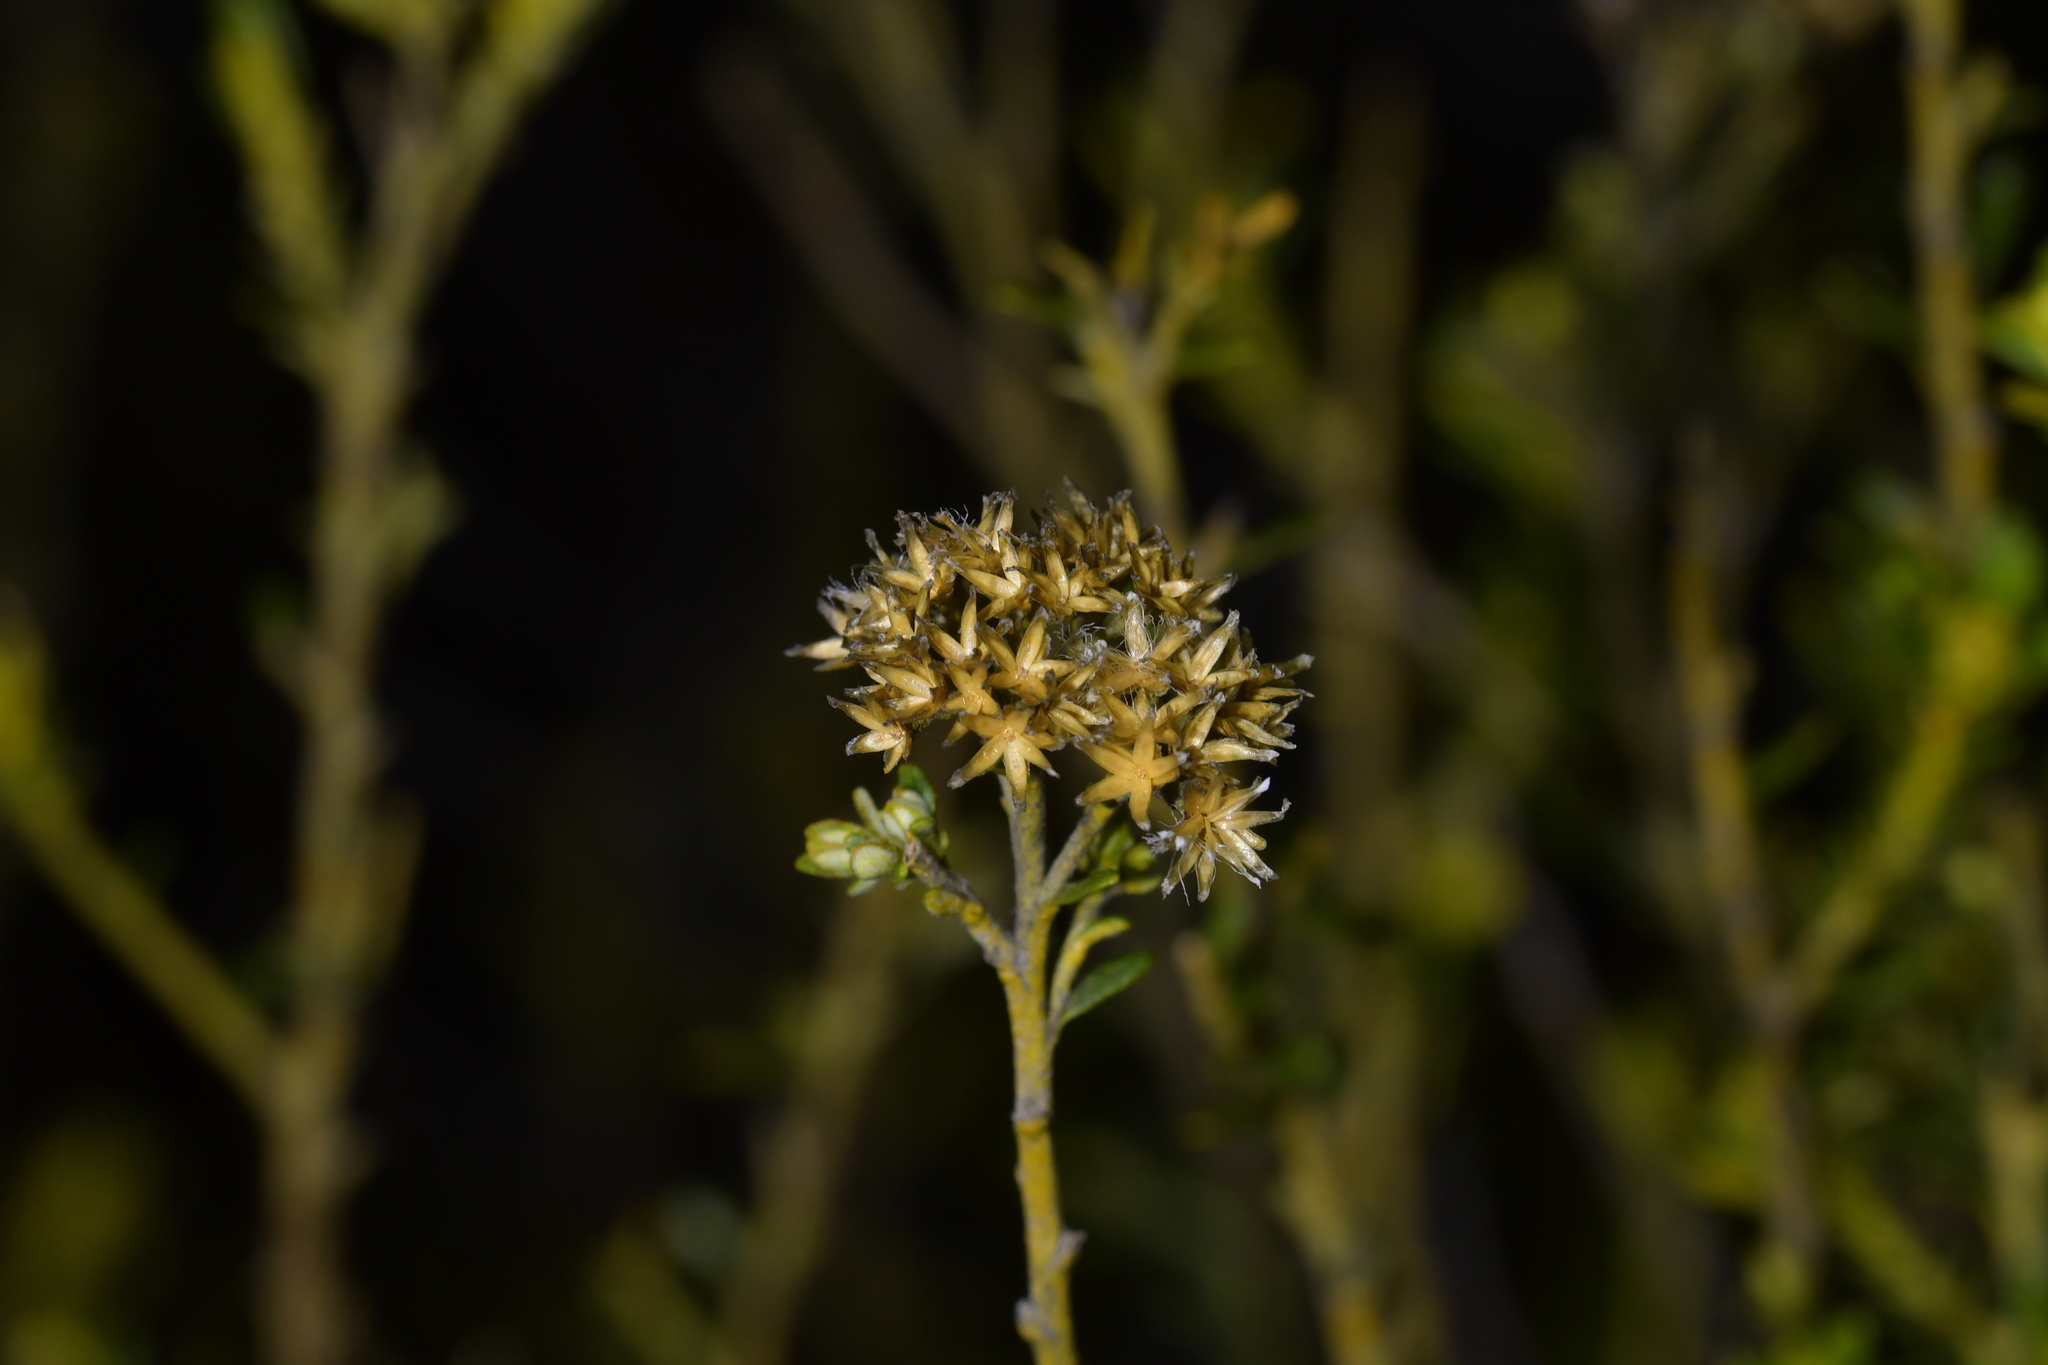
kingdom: Plantae
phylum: Tracheophyta
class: Magnoliopsida
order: Asterales
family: Asteraceae
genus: Ozothamnus
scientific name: Ozothamnus leptophyllus
